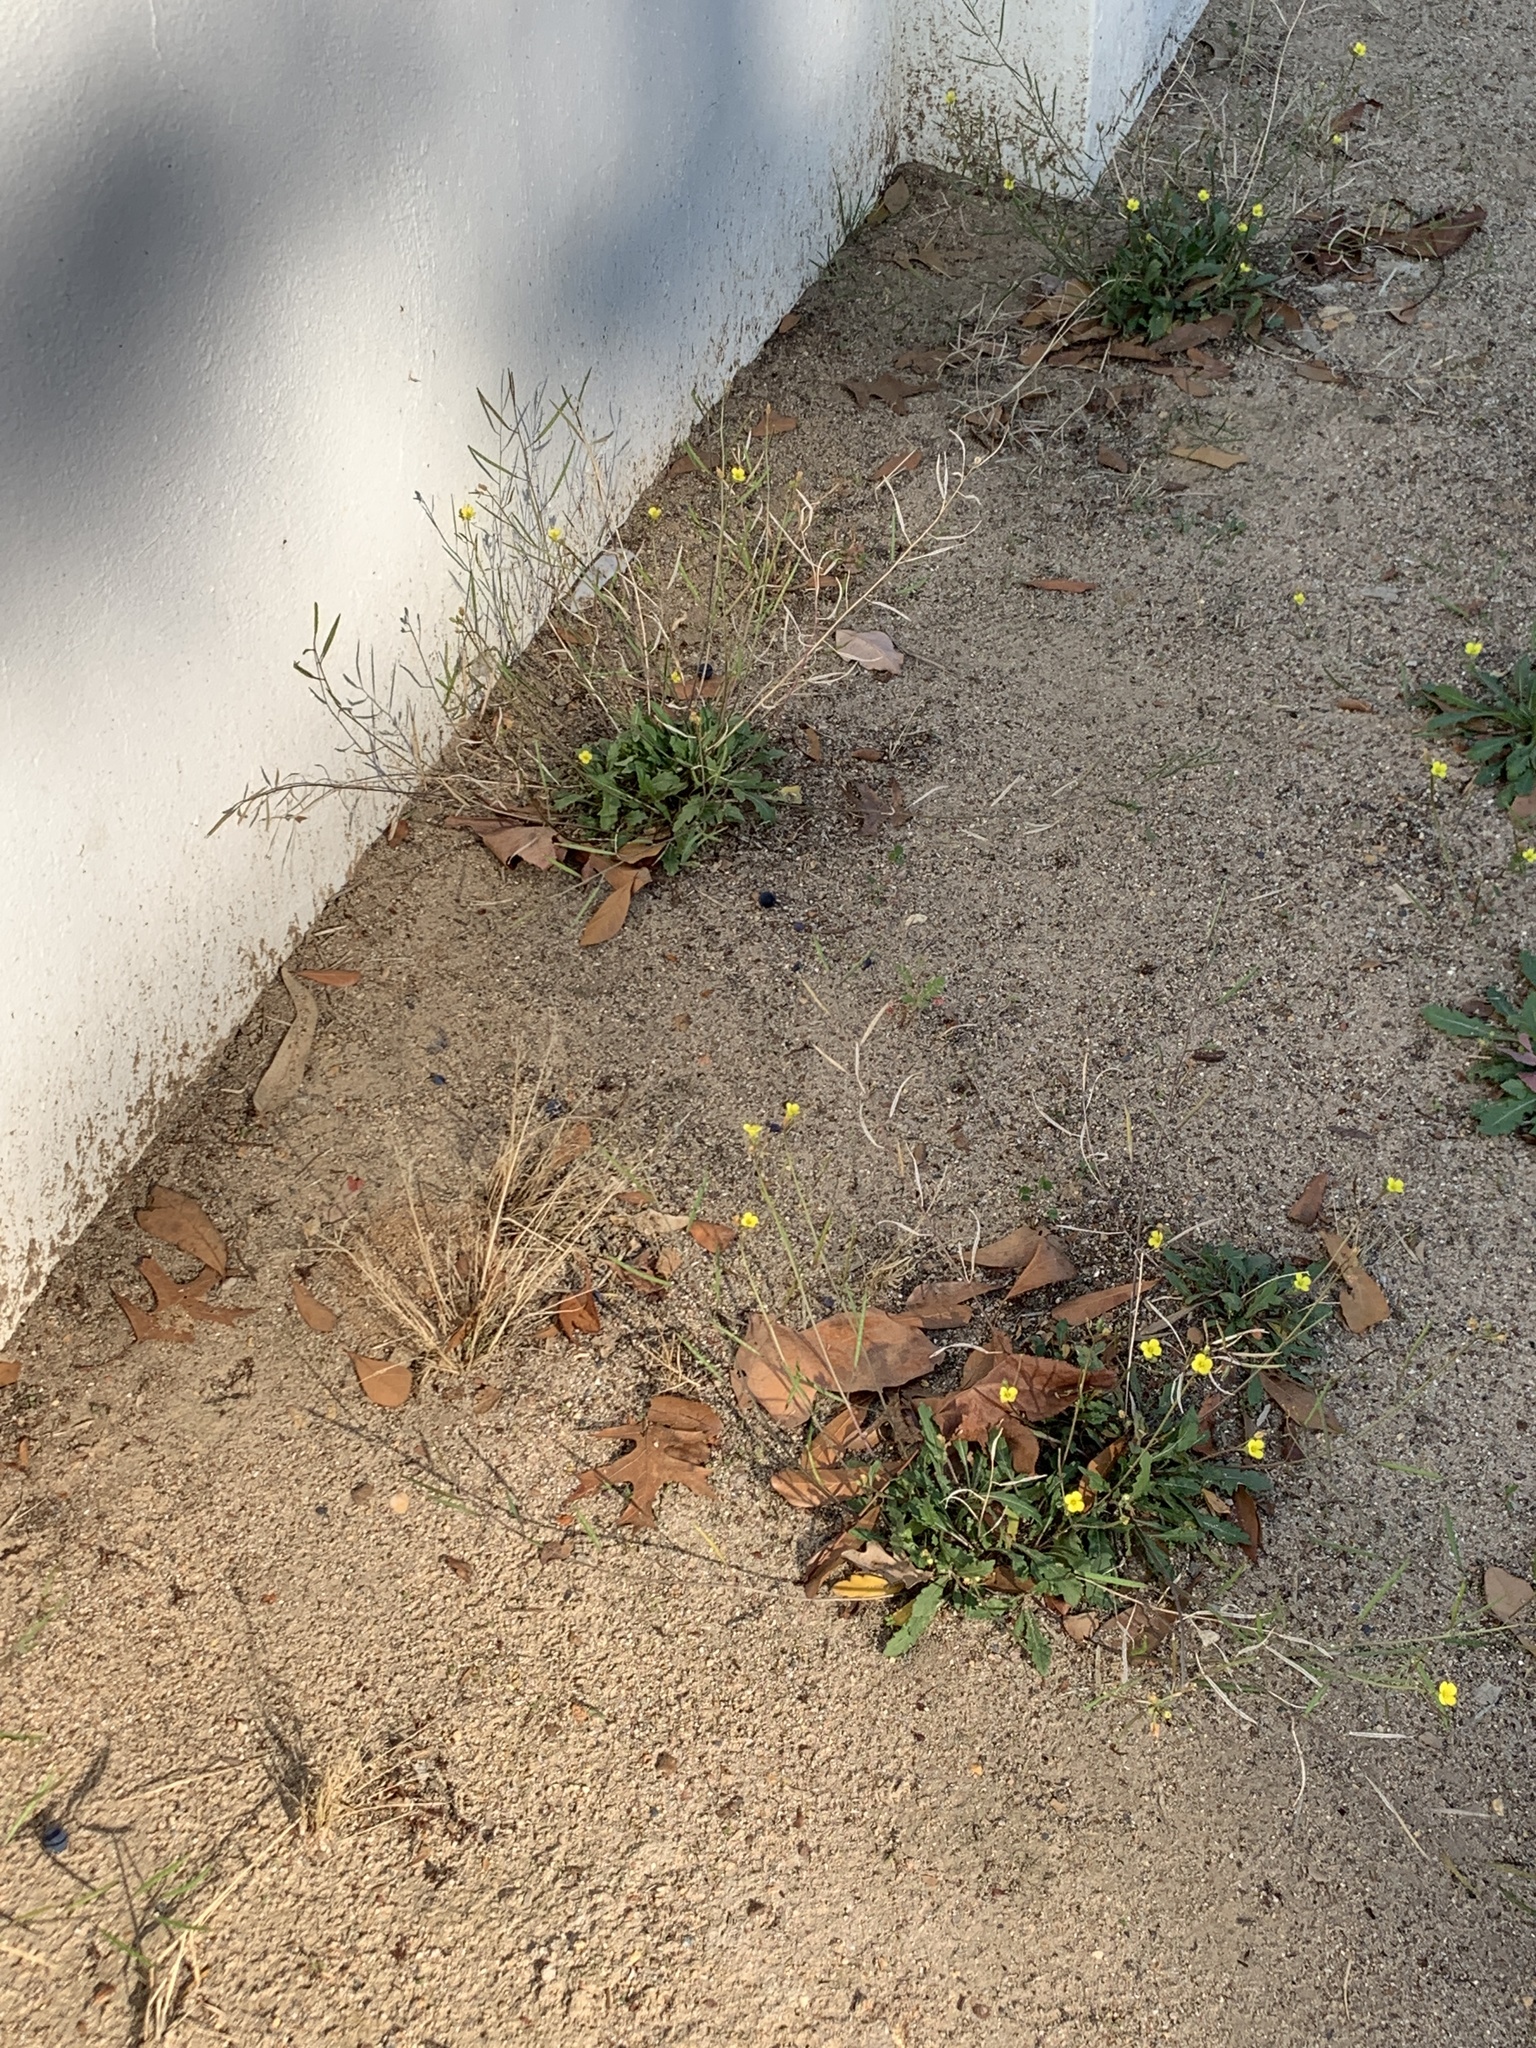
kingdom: Plantae
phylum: Tracheophyta
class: Magnoliopsida
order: Brassicales
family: Brassicaceae
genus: Diplotaxis
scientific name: Diplotaxis muralis
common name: Annual wall-rocket
